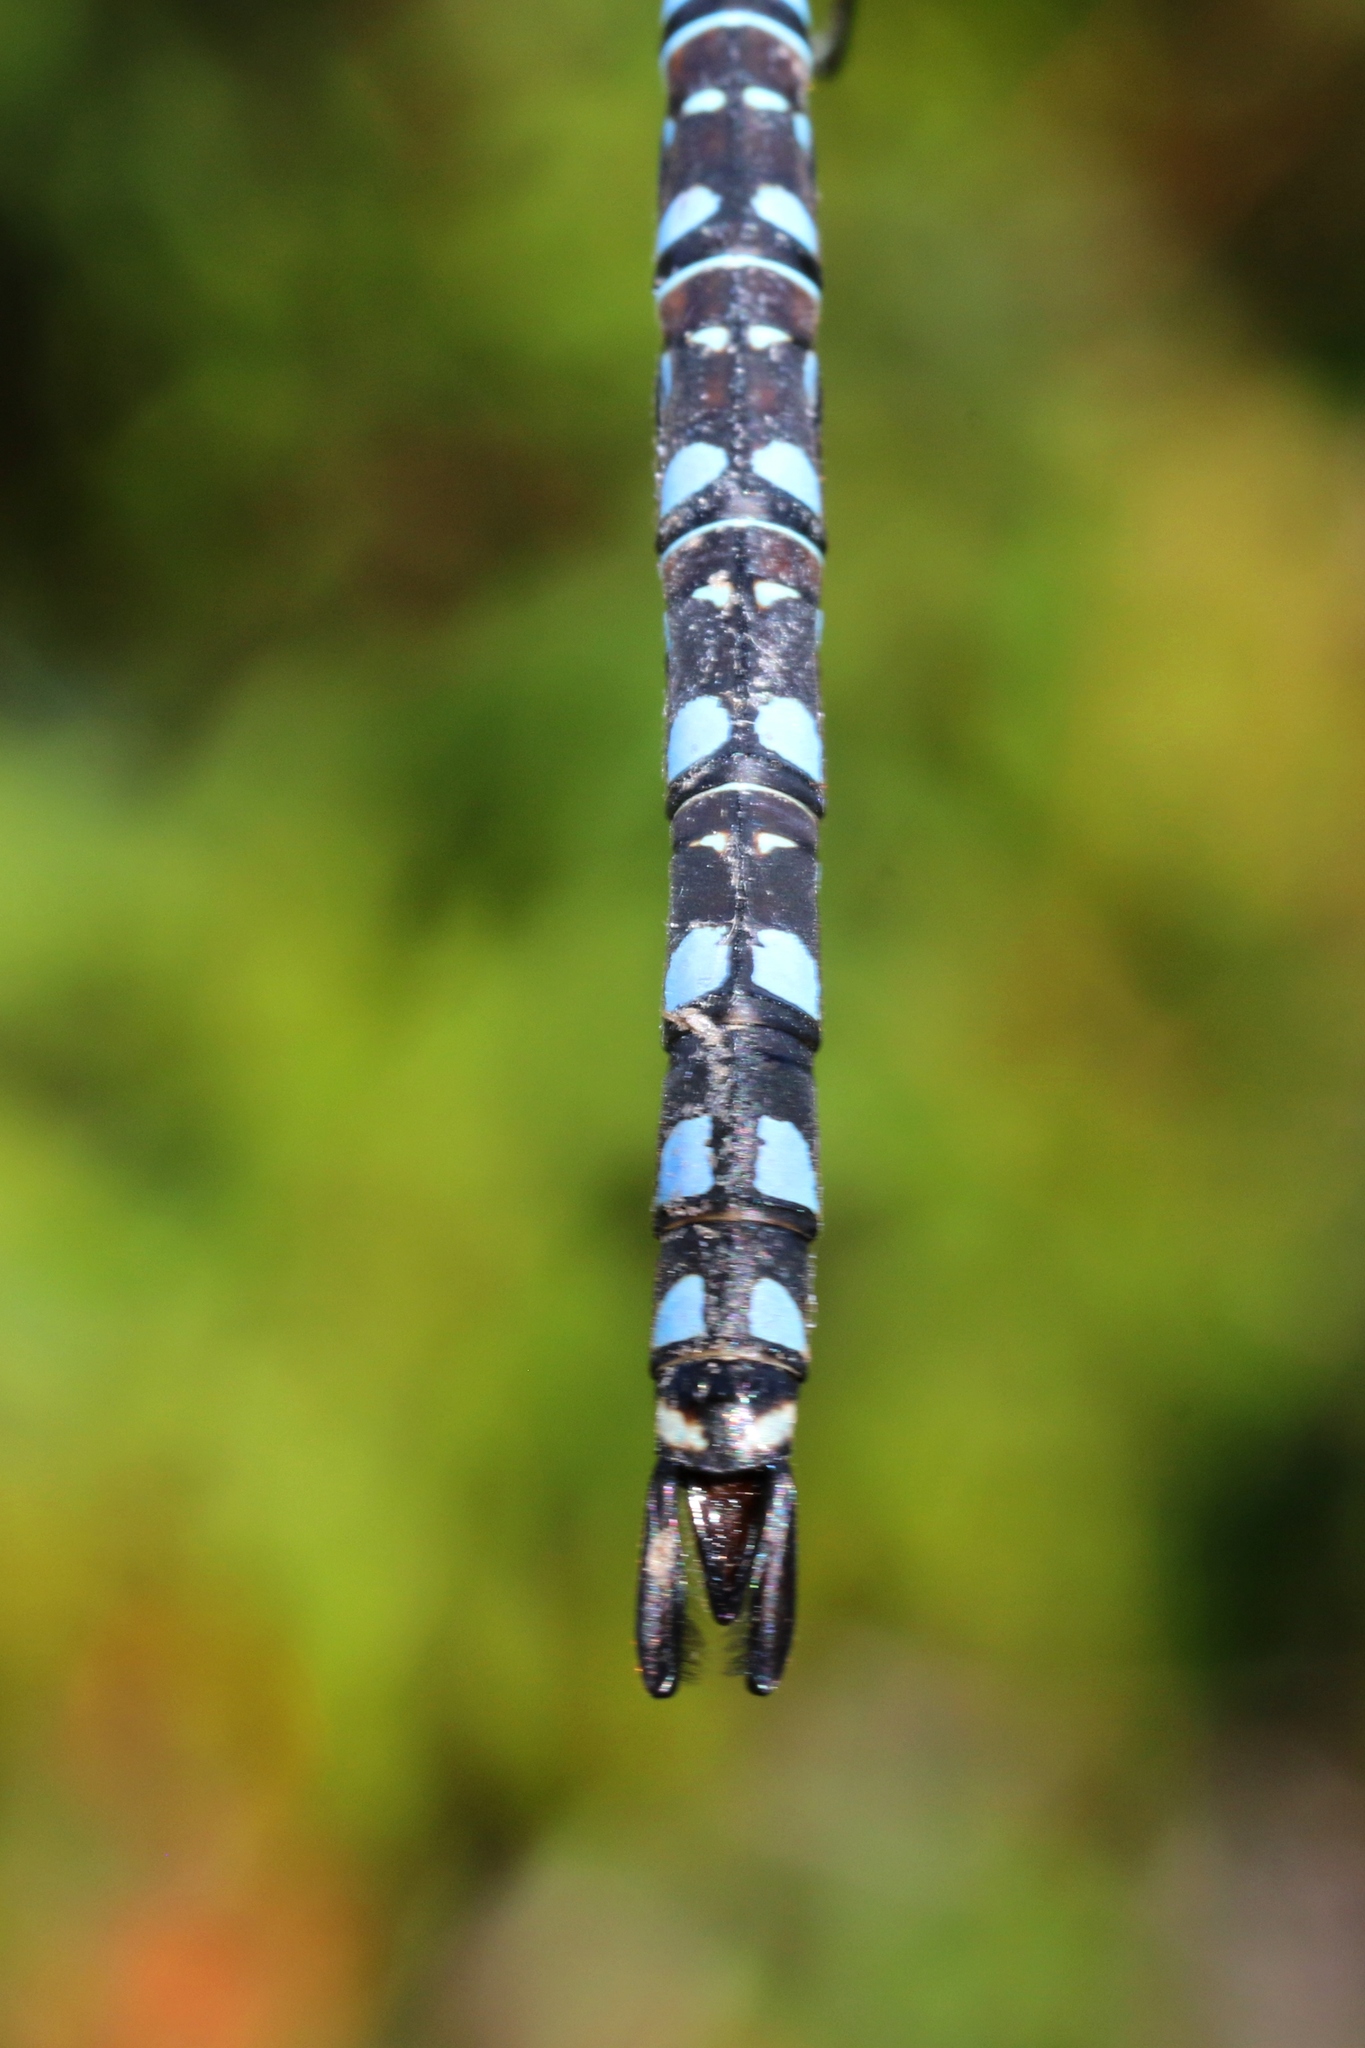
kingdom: Animalia
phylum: Arthropoda
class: Insecta
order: Odonata
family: Aeshnidae
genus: Aeshna
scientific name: Aeshna interrupta
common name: Variable darner
